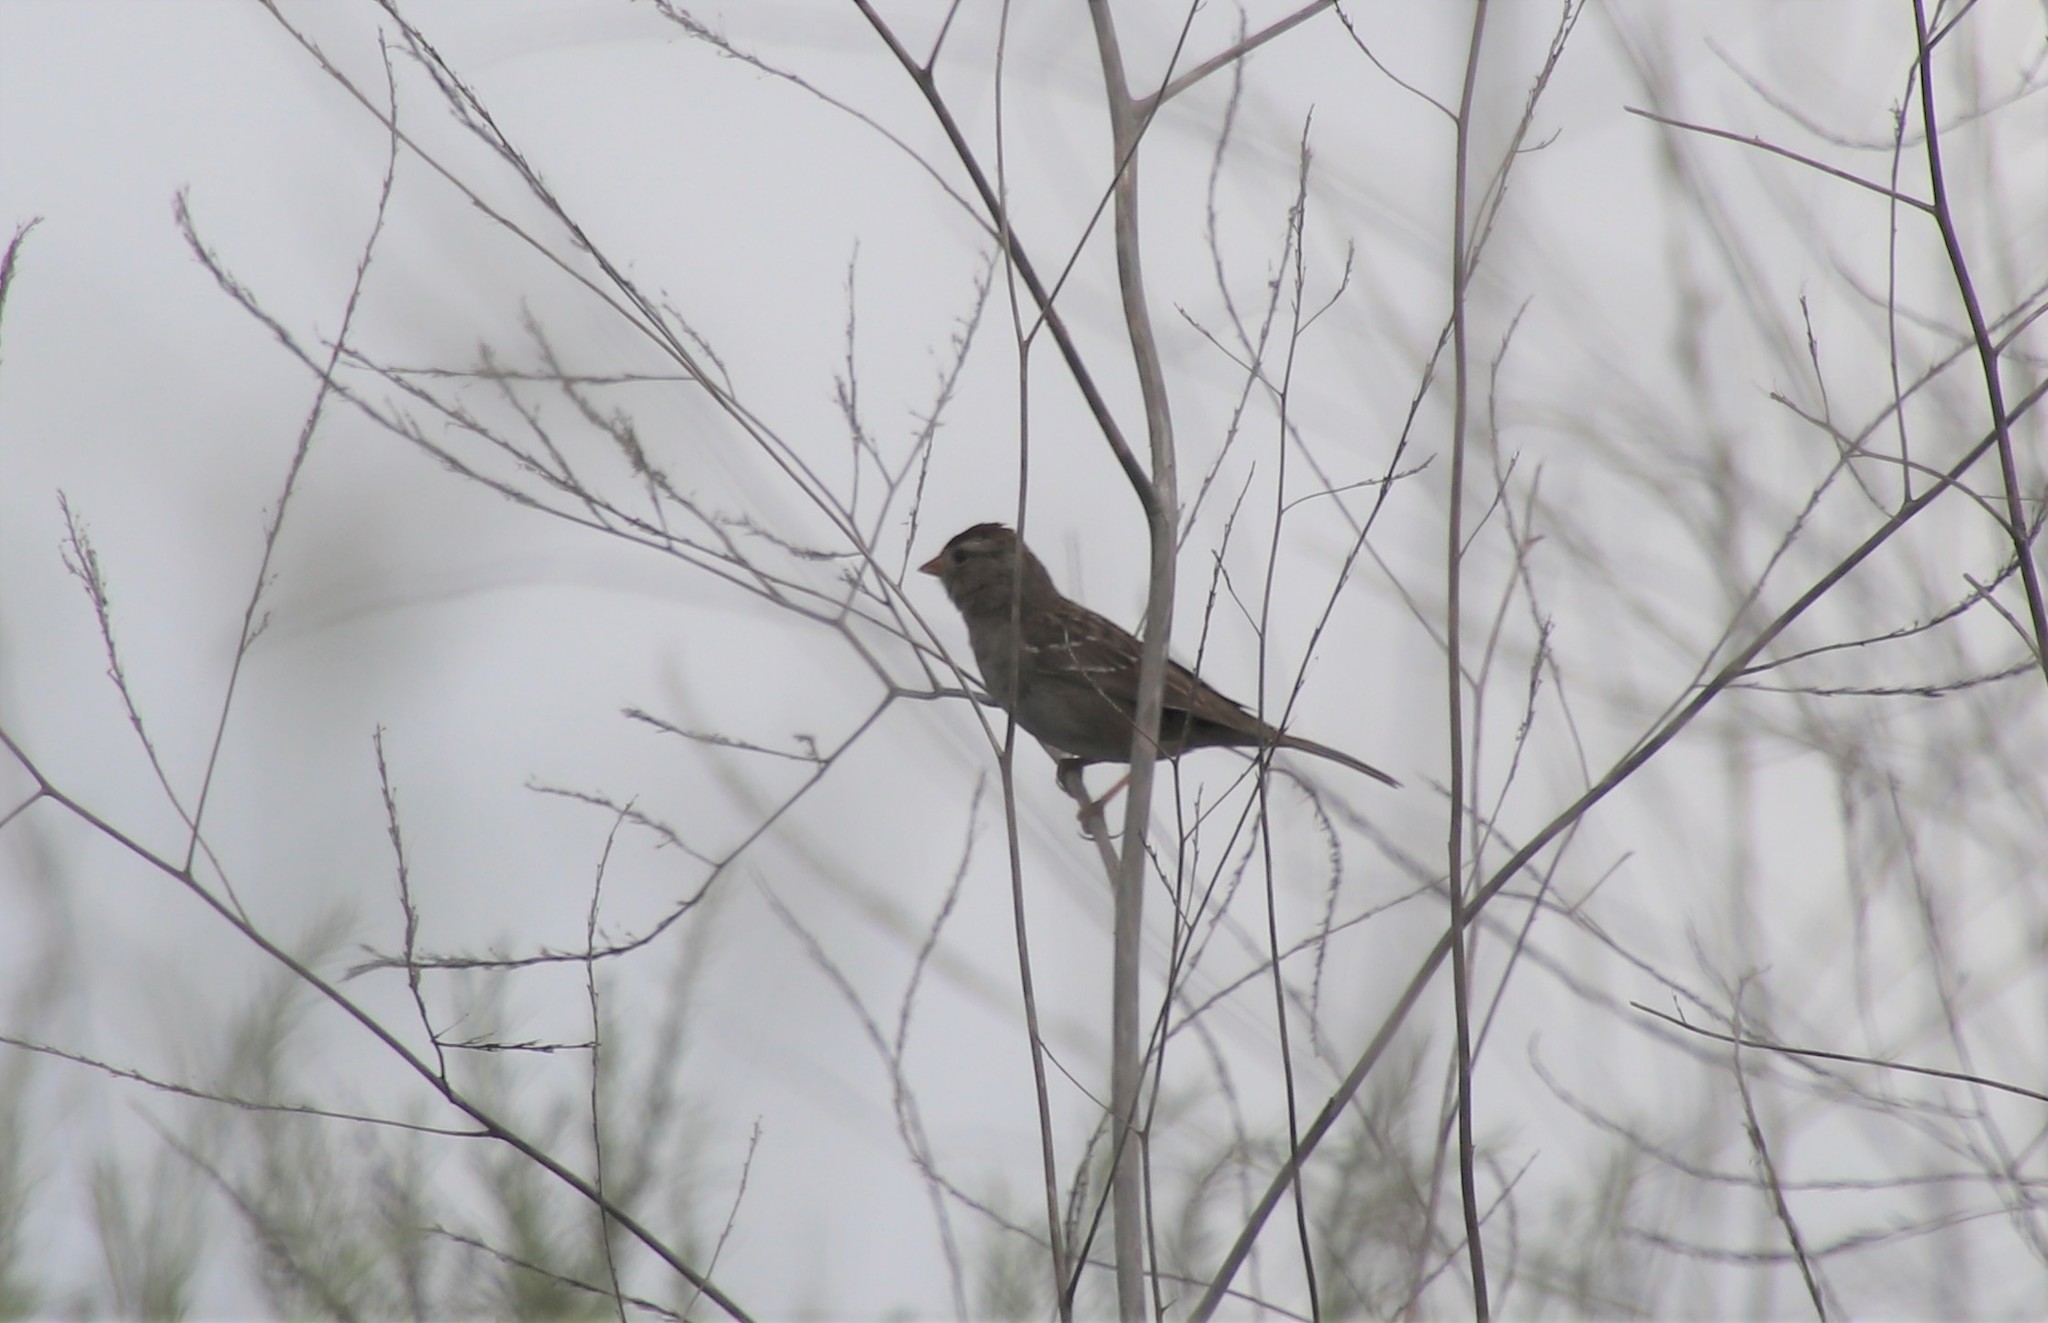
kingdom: Animalia
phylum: Chordata
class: Aves
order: Passeriformes
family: Passerellidae
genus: Zonotrichia
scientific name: Zonotrichia leucophrys
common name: White-crowned sparrow
